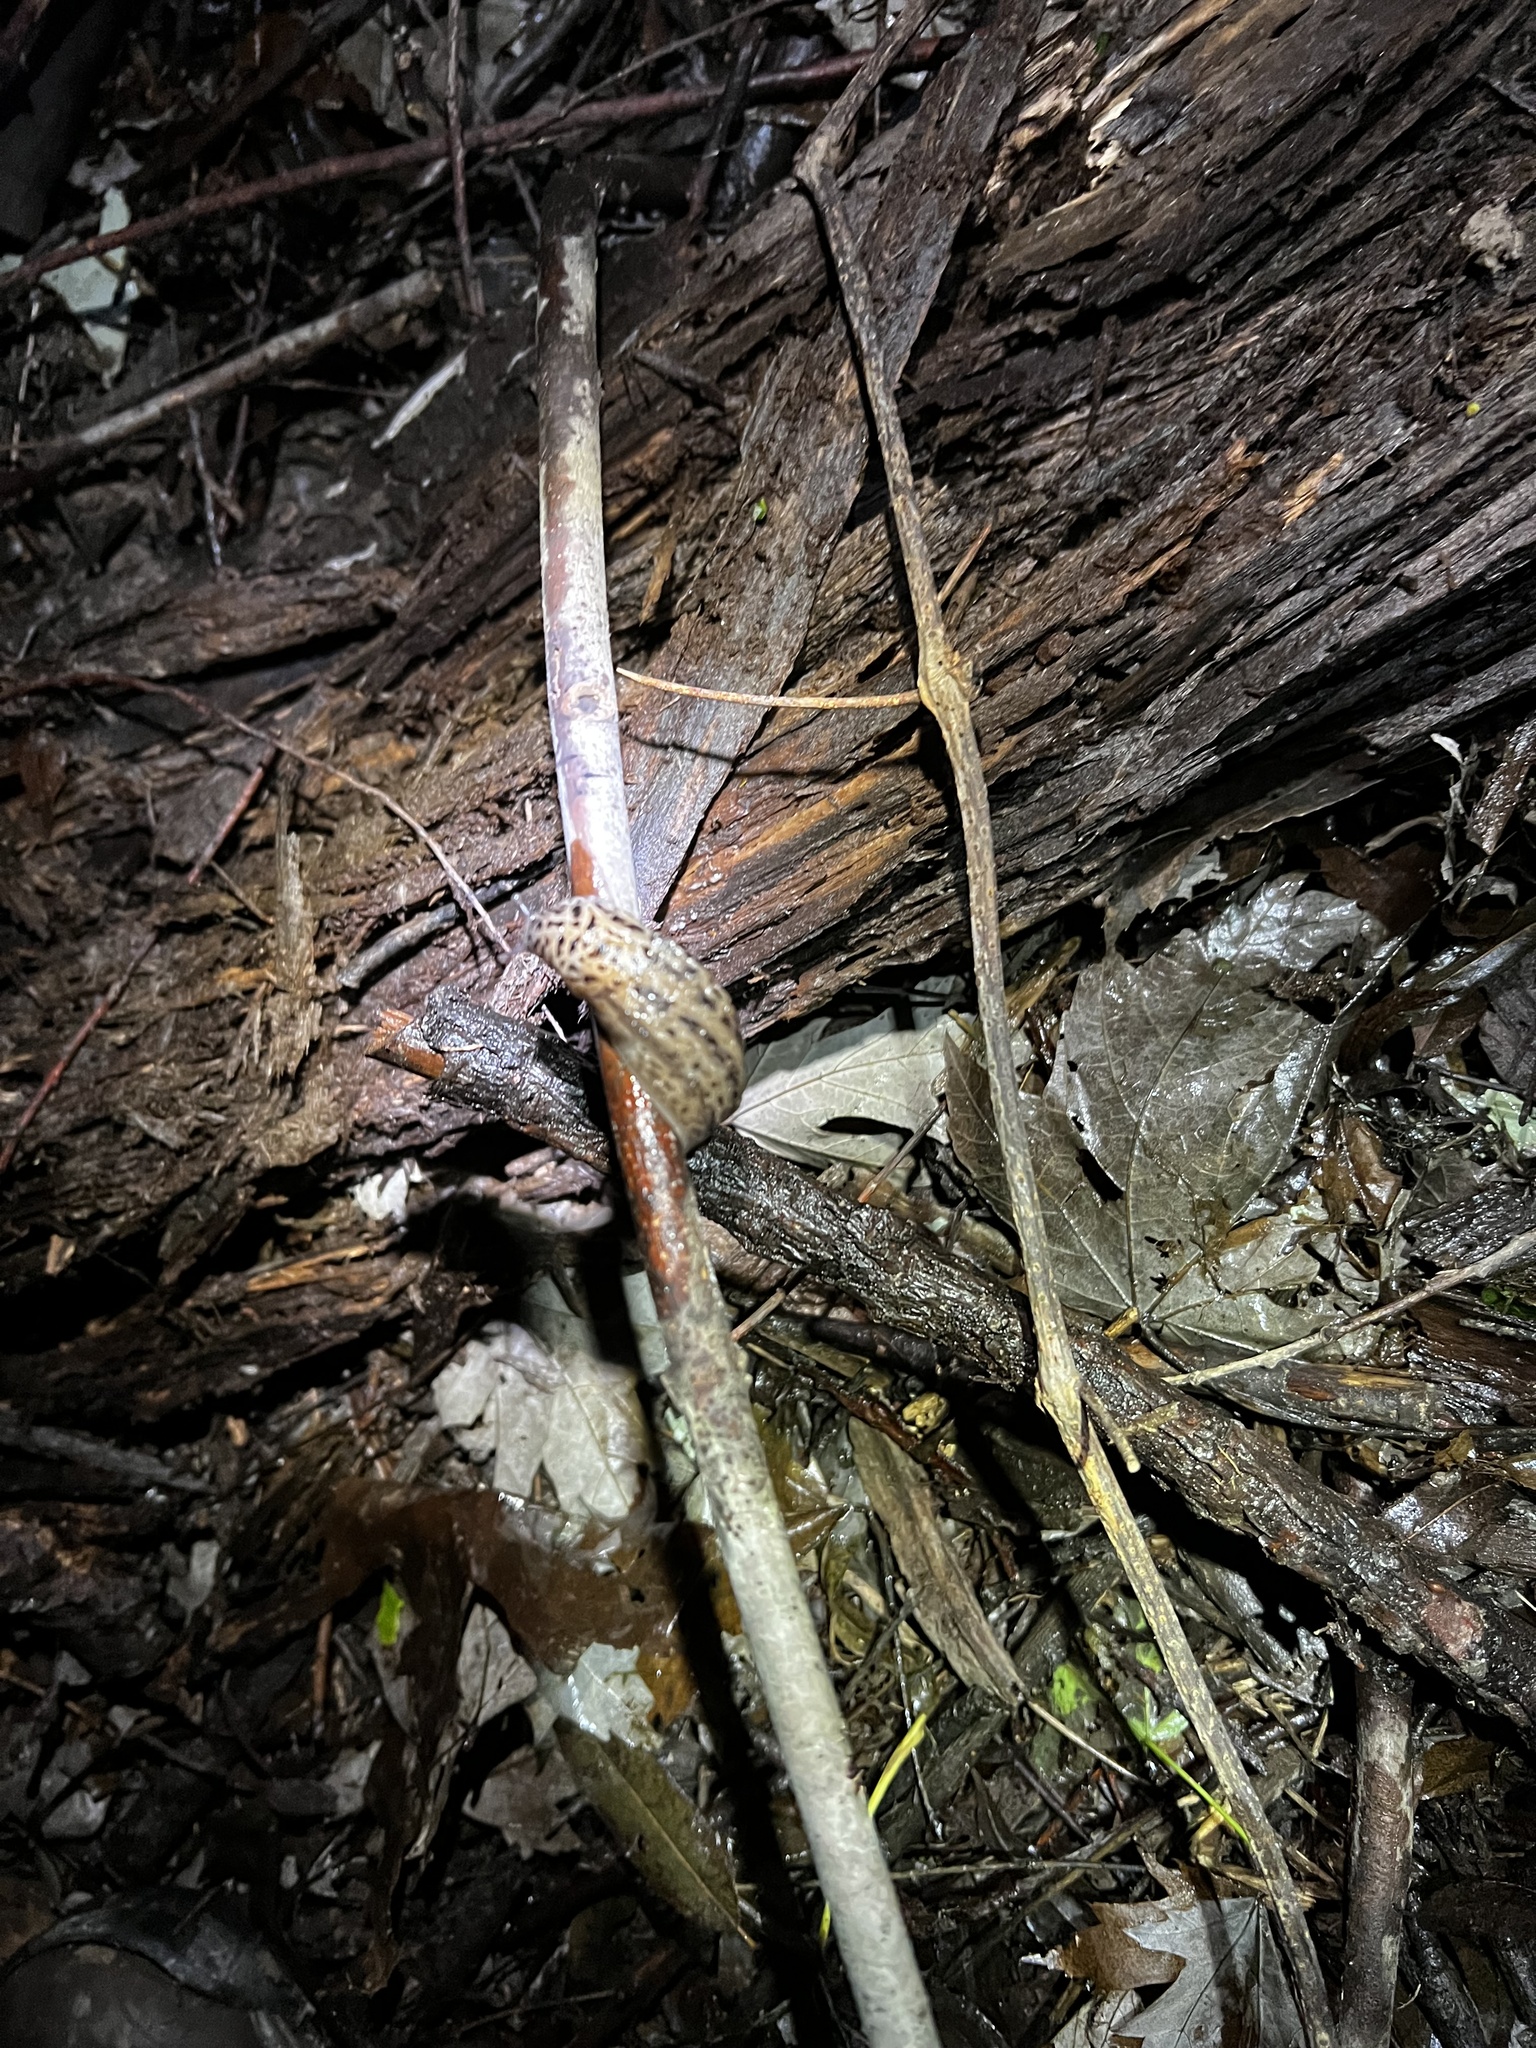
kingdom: Animalia
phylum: Mollusca
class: Gastropoda
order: Stylommatophora
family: Limacidae
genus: Limax
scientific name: Limax maximus
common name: Great grey slug
